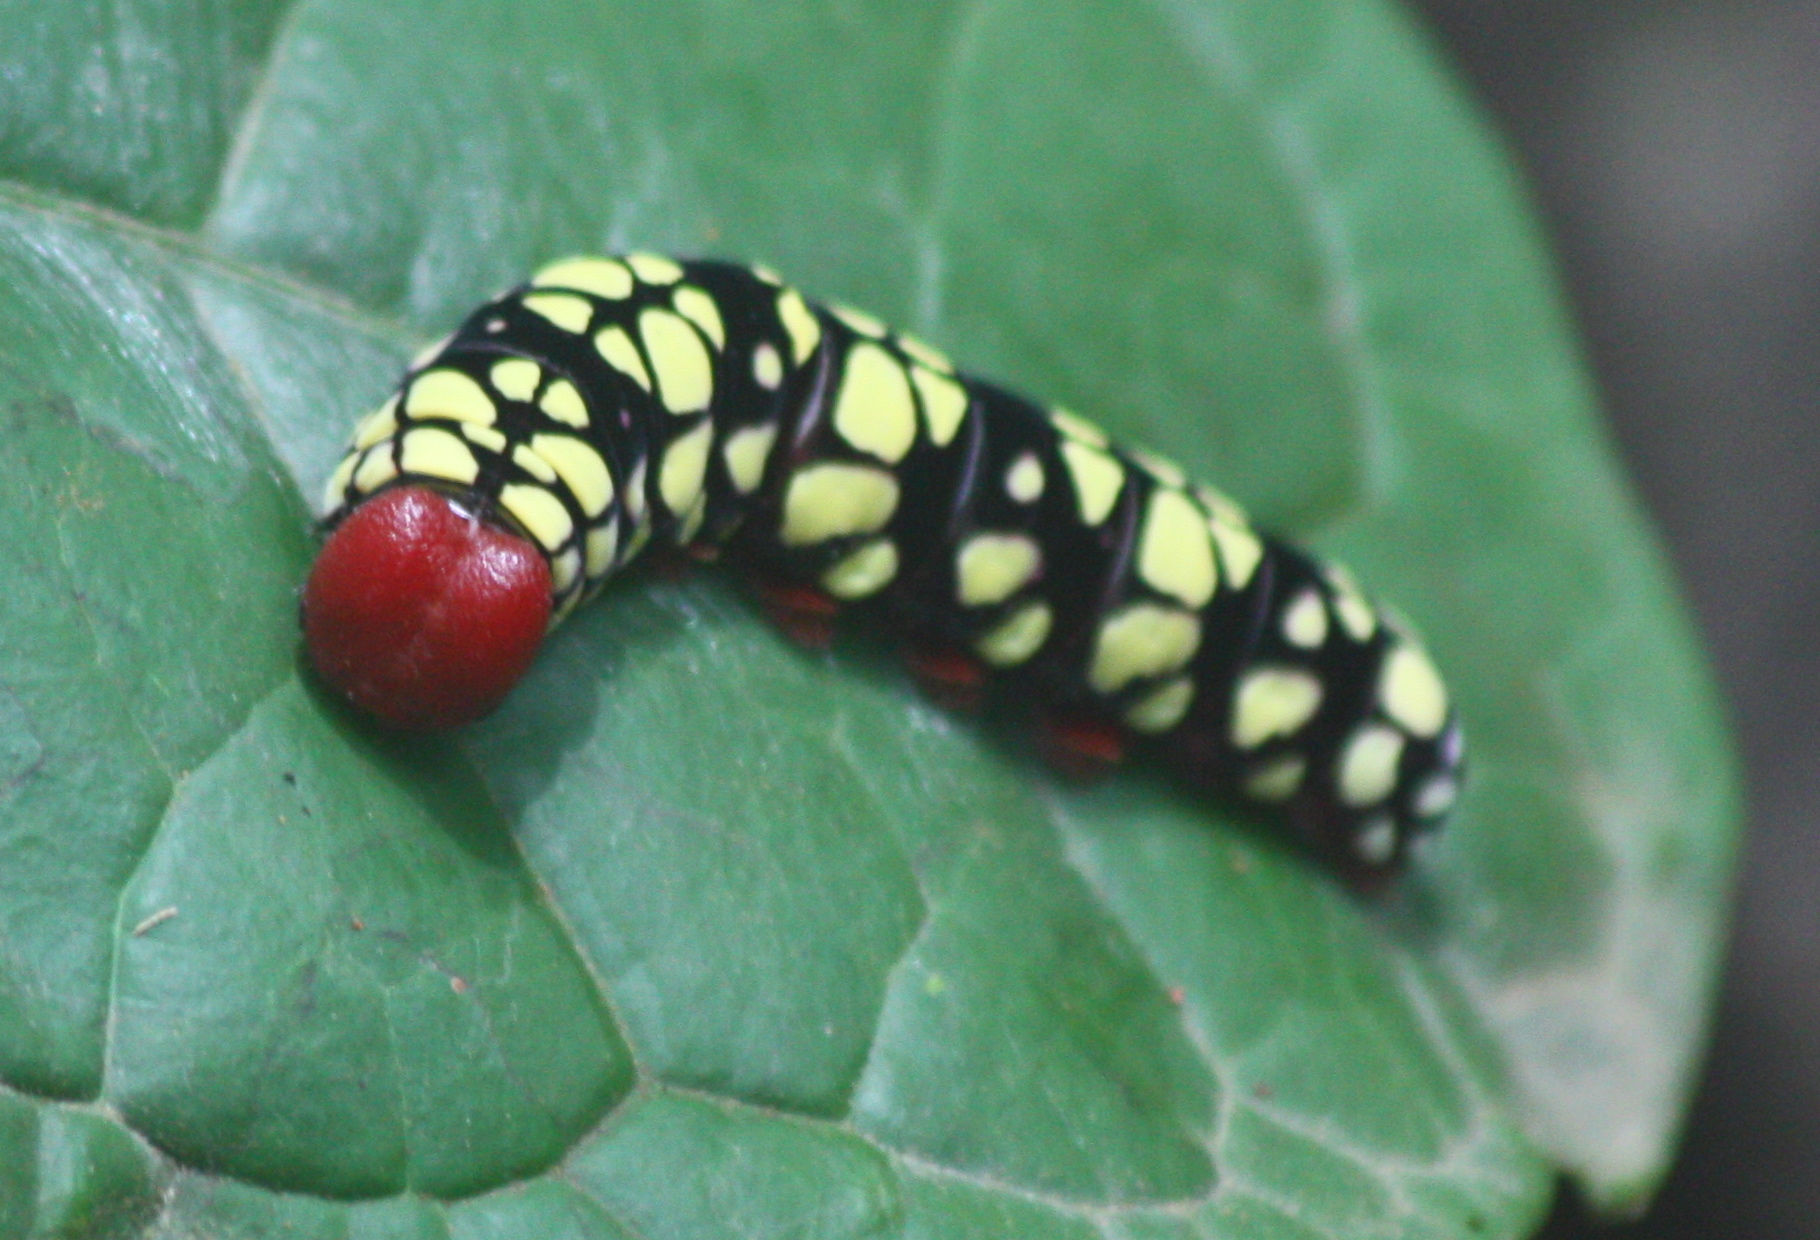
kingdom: Animalia
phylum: Arthropoda
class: Insecta
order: Lepidoptera
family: Hesperiidae
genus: Pyrrhochalcia
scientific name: Pyrrhochalcia iphis
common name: African giant skipper
